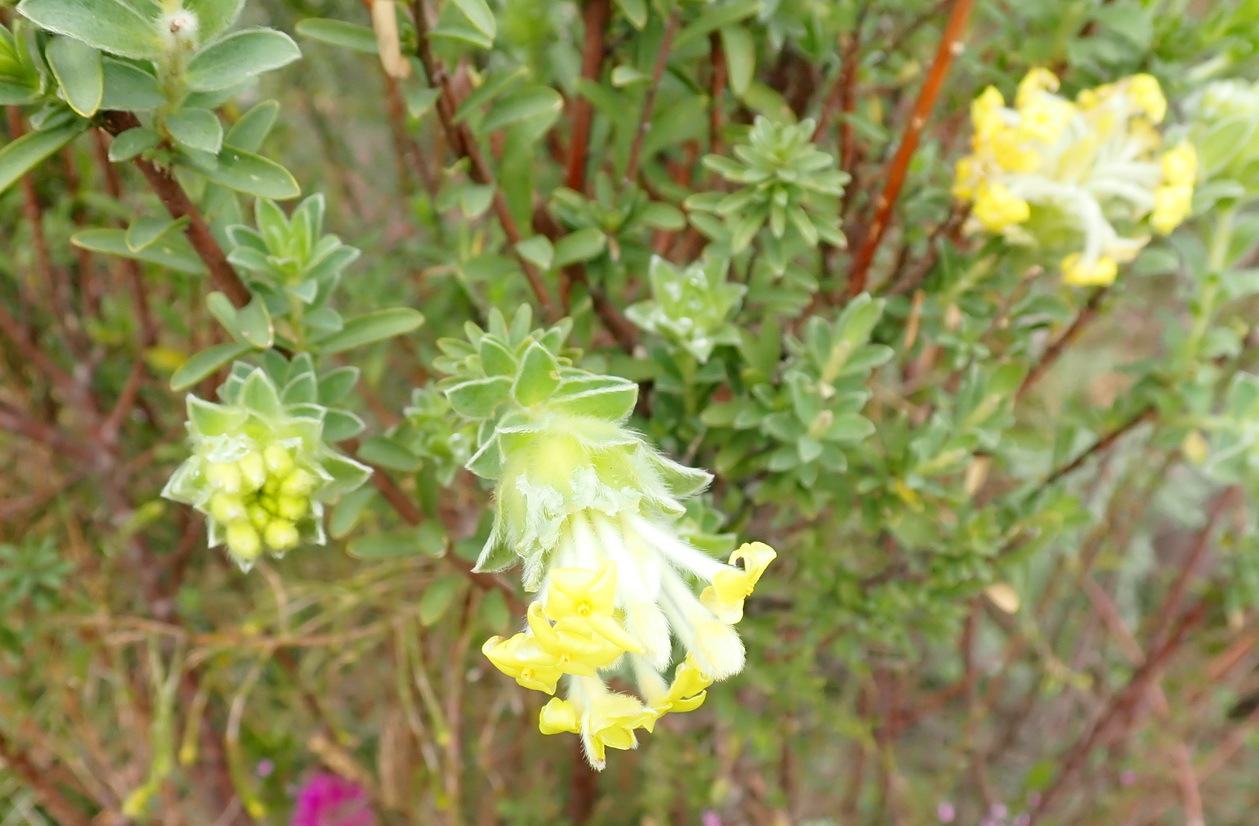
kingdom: Plantae
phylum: Tracheophyta
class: Magnoliopsida
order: Malvales
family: Thymelaeaceae
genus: Gnidia
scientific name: Gnidia anthylloides
